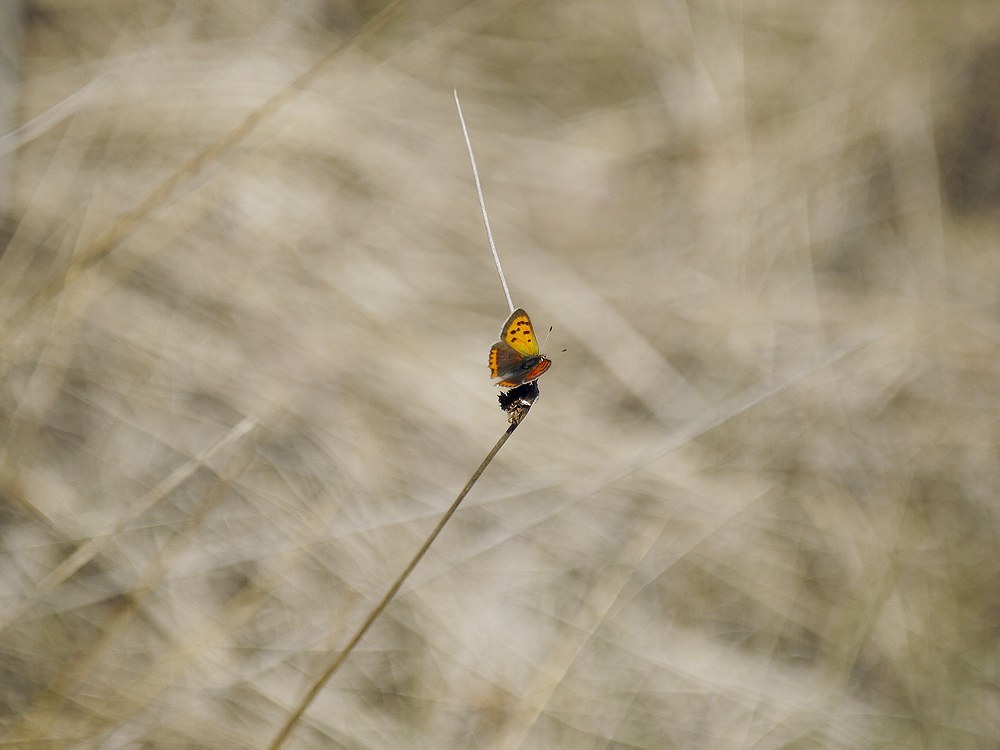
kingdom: Animalia
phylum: Arthropoda
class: Insecta
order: Lepidoptera
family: Lycaenidae
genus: Lycaena
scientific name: Lycaena phlaeas
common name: Small copper
